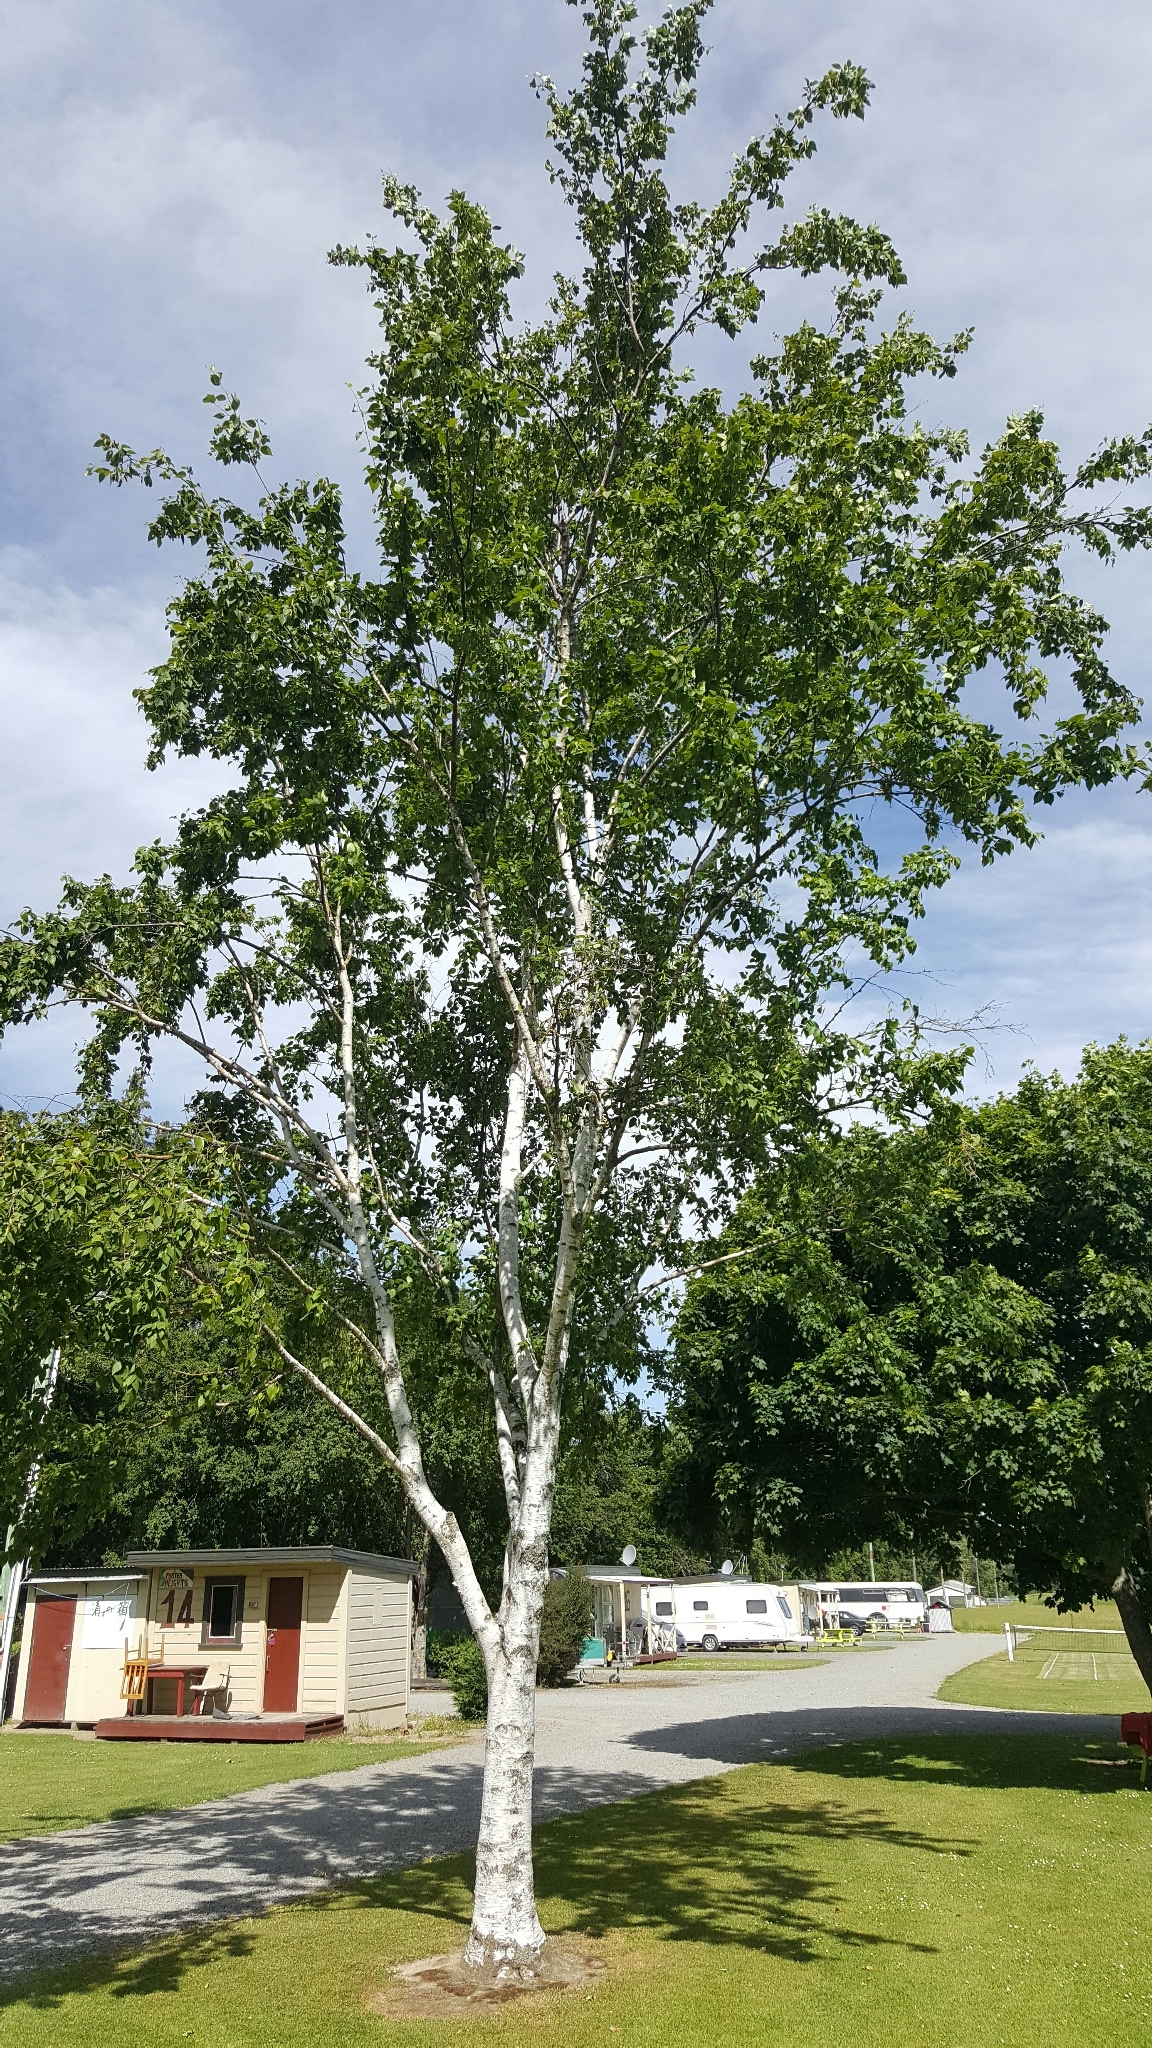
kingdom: Plantae
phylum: Tracheophyta
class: Magnoliopsida
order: Fagales
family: Betulaceae
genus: Betula
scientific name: Betula pendula
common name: Silver birch
